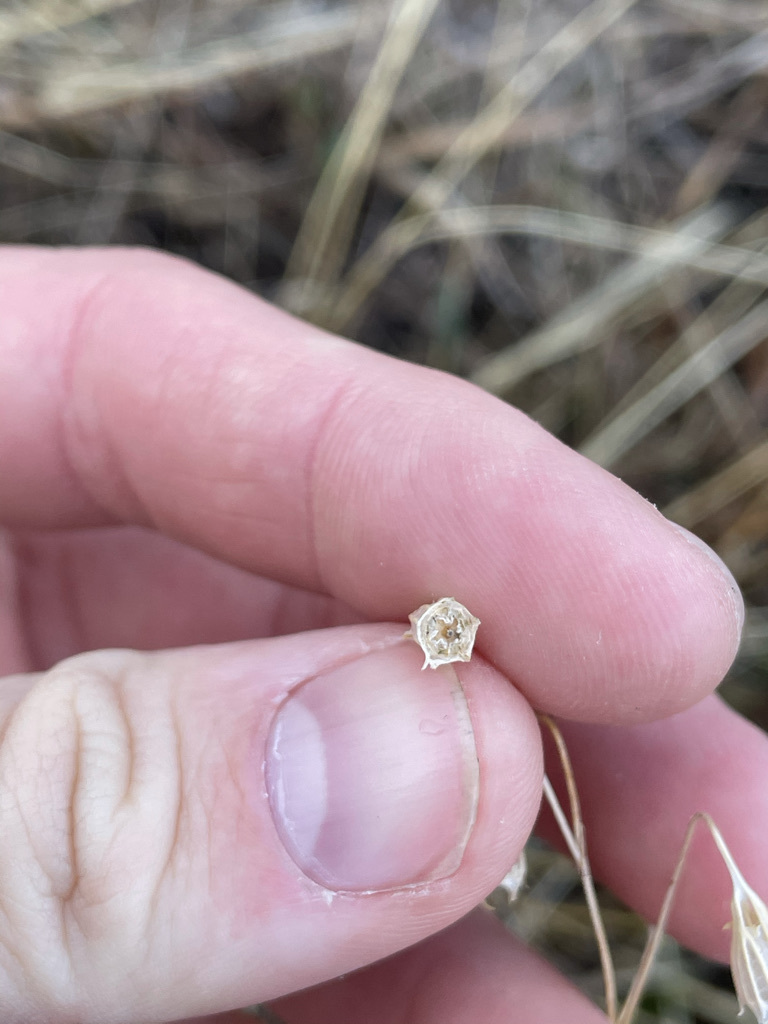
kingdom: Plantae
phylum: Tracheophyta
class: Magnoliopsida
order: Asterales
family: Campanulaceae
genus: Campanula
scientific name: Campanula alaskana
